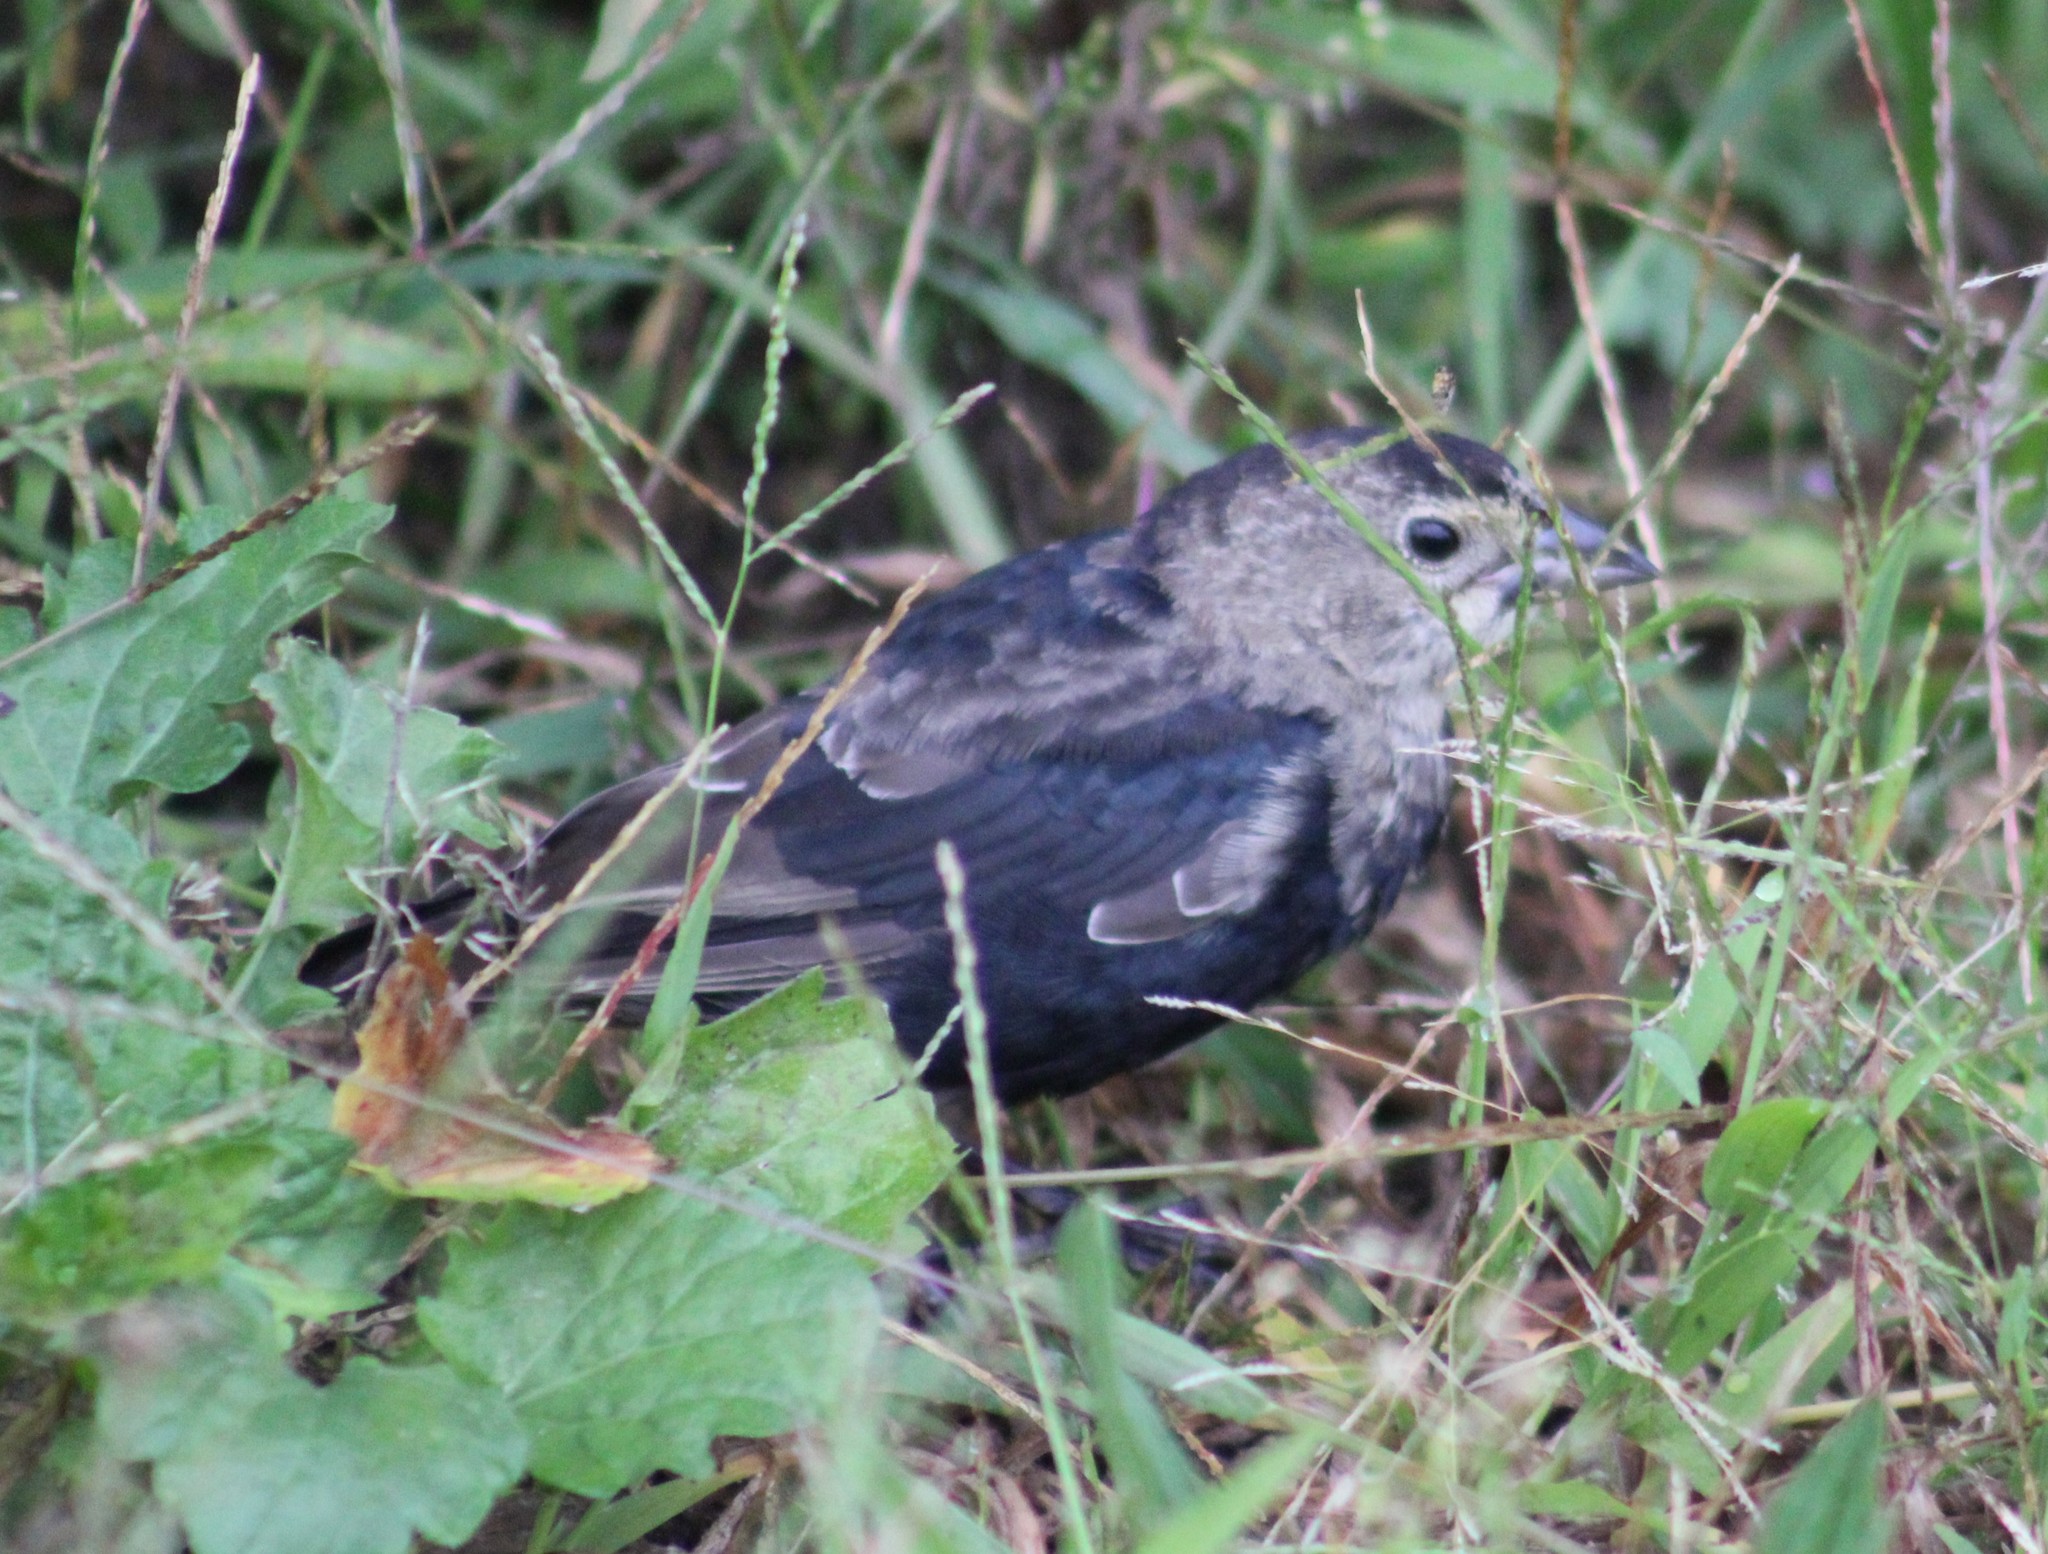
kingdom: Animalia
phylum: Chordata
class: Aves
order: Passeriformes
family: Icteridae
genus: Molothrus
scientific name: Molothrus ater
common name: Brown-headed cowbird
